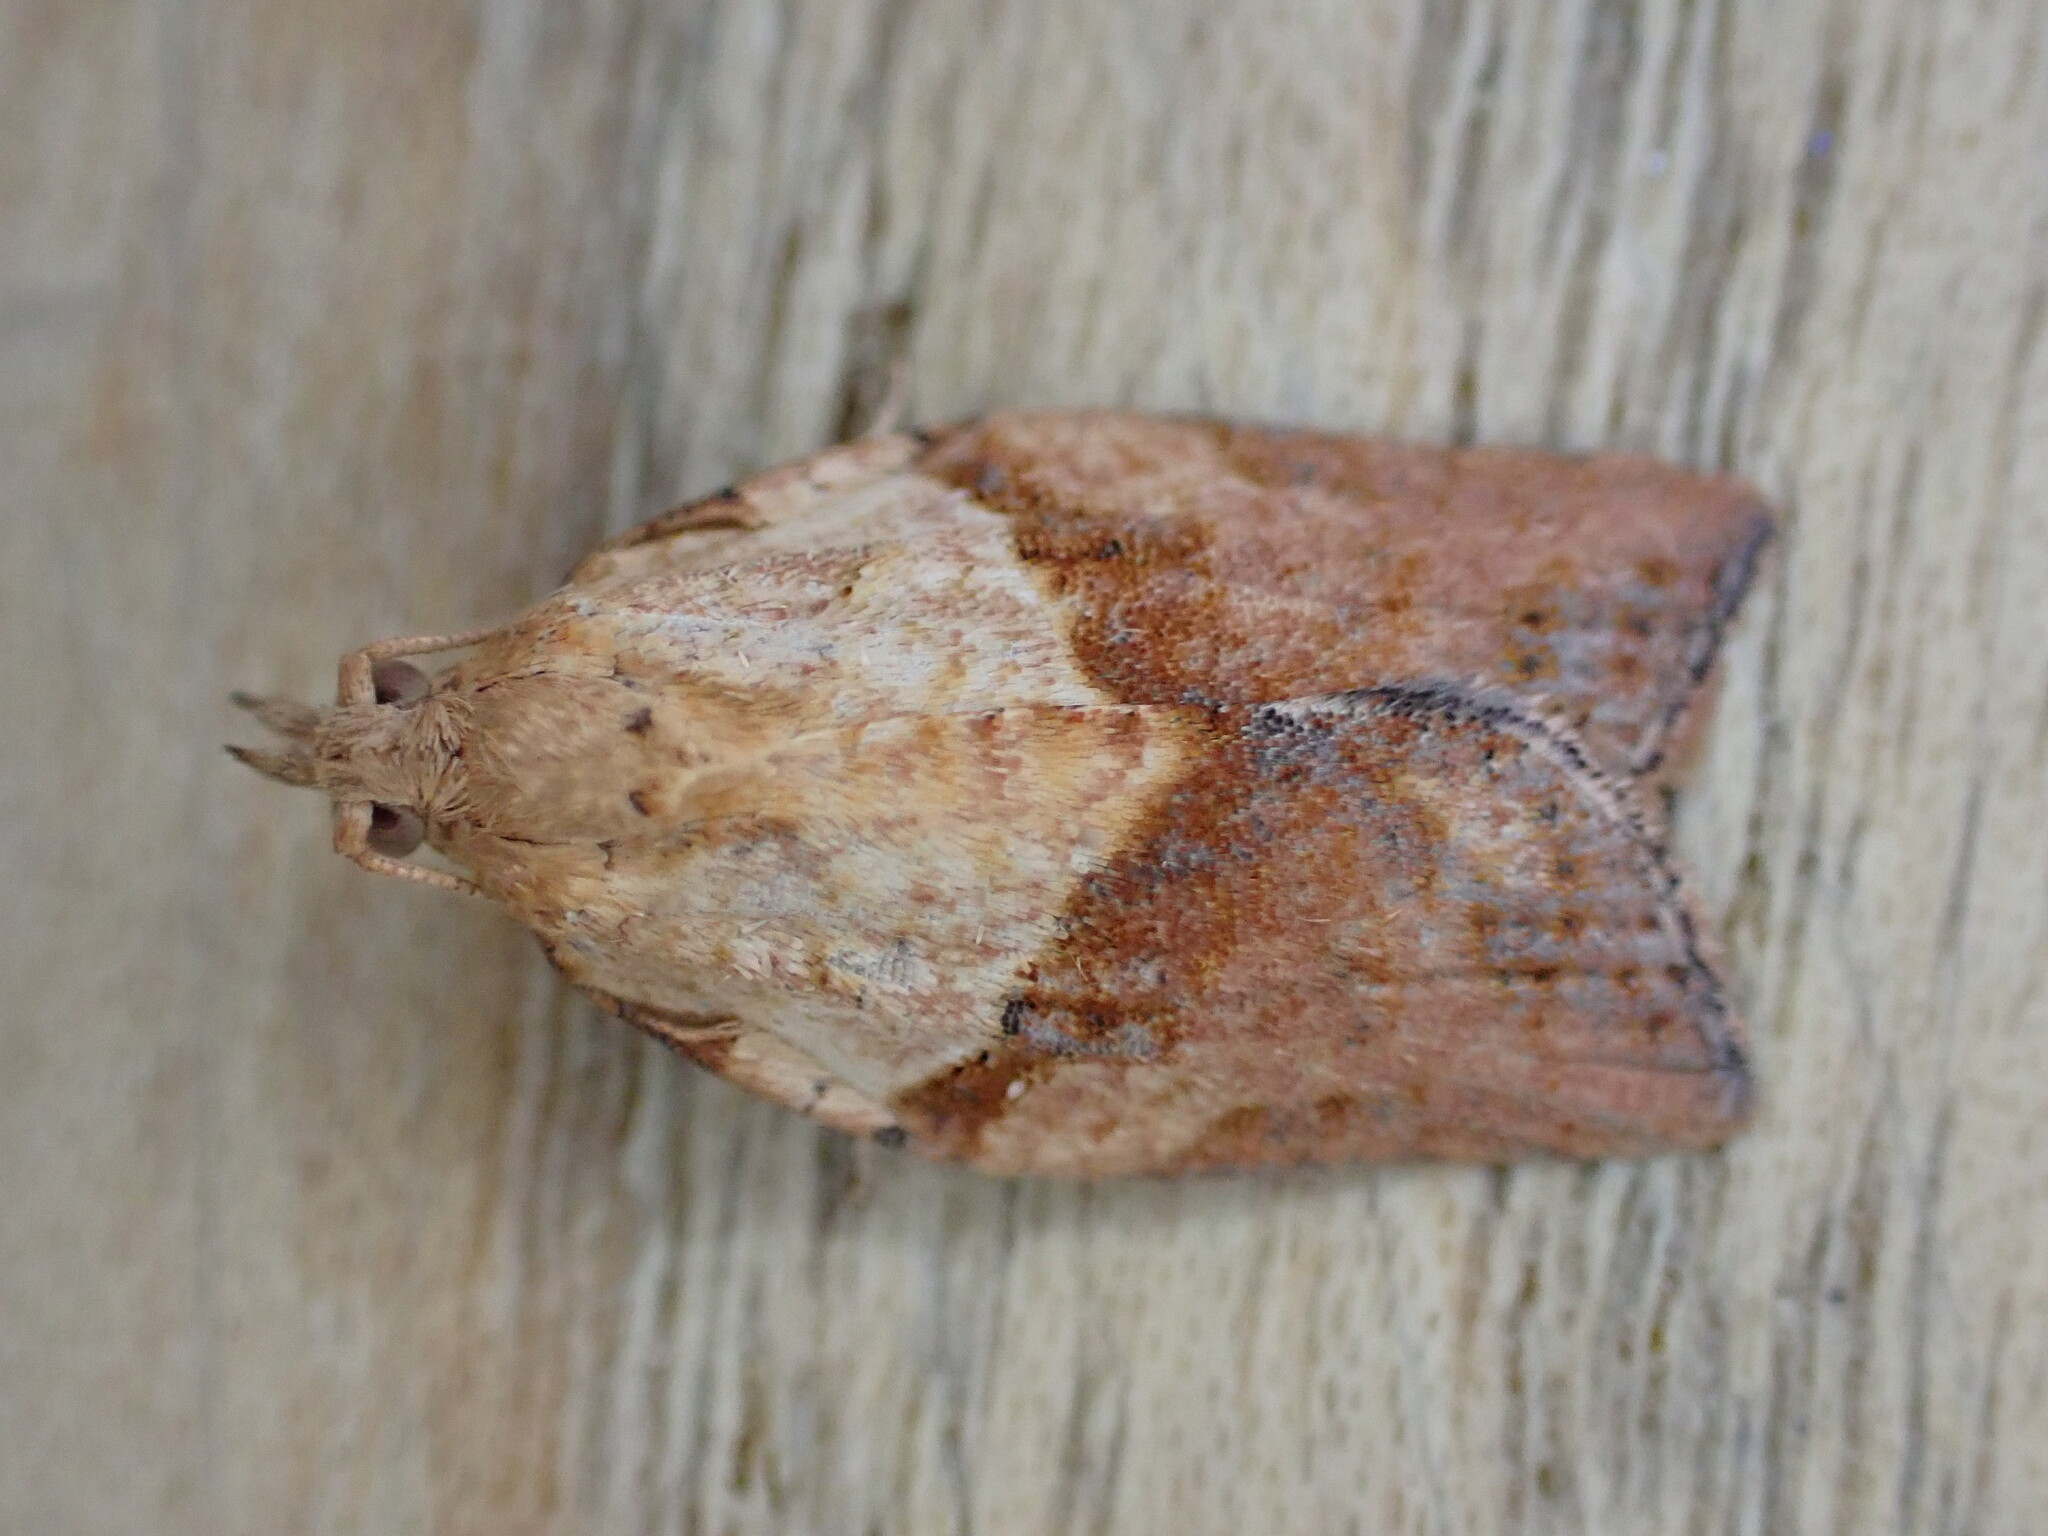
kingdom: Animalia
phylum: Arthropoda
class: Insecta
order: Lepidoptera
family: Tortricidae
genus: Epiphyas
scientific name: Epiphyas postvittana
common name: Light brown apple moth
